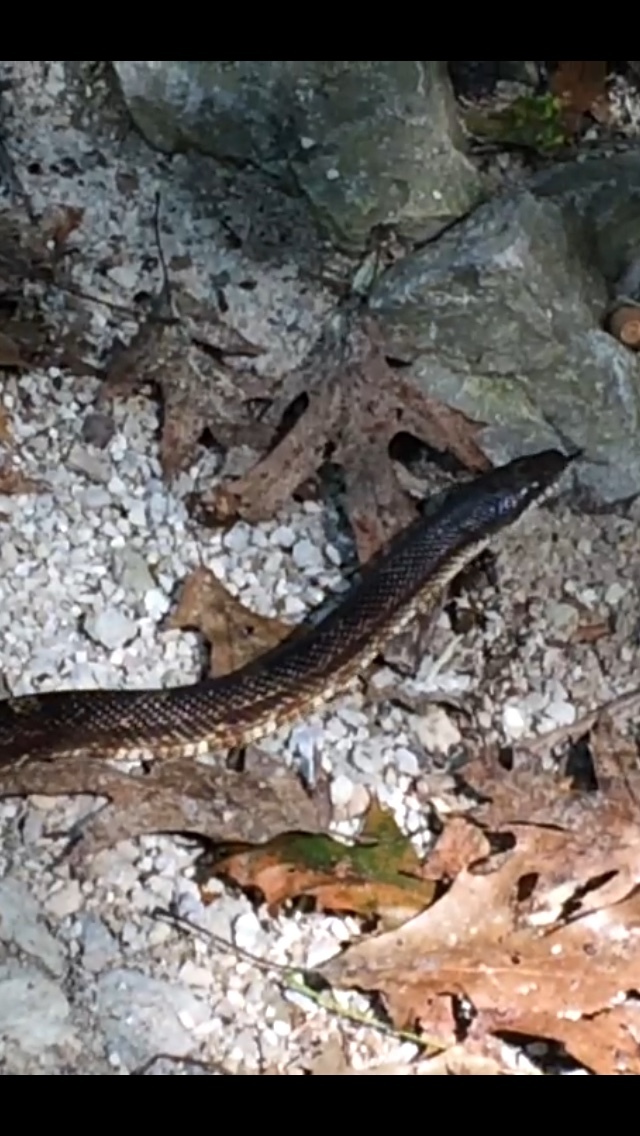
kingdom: Animalia
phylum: Chordata
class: Squamata
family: Colubridae
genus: Pantherophis
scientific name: Pantherophis spiloides
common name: Gray rat snake
